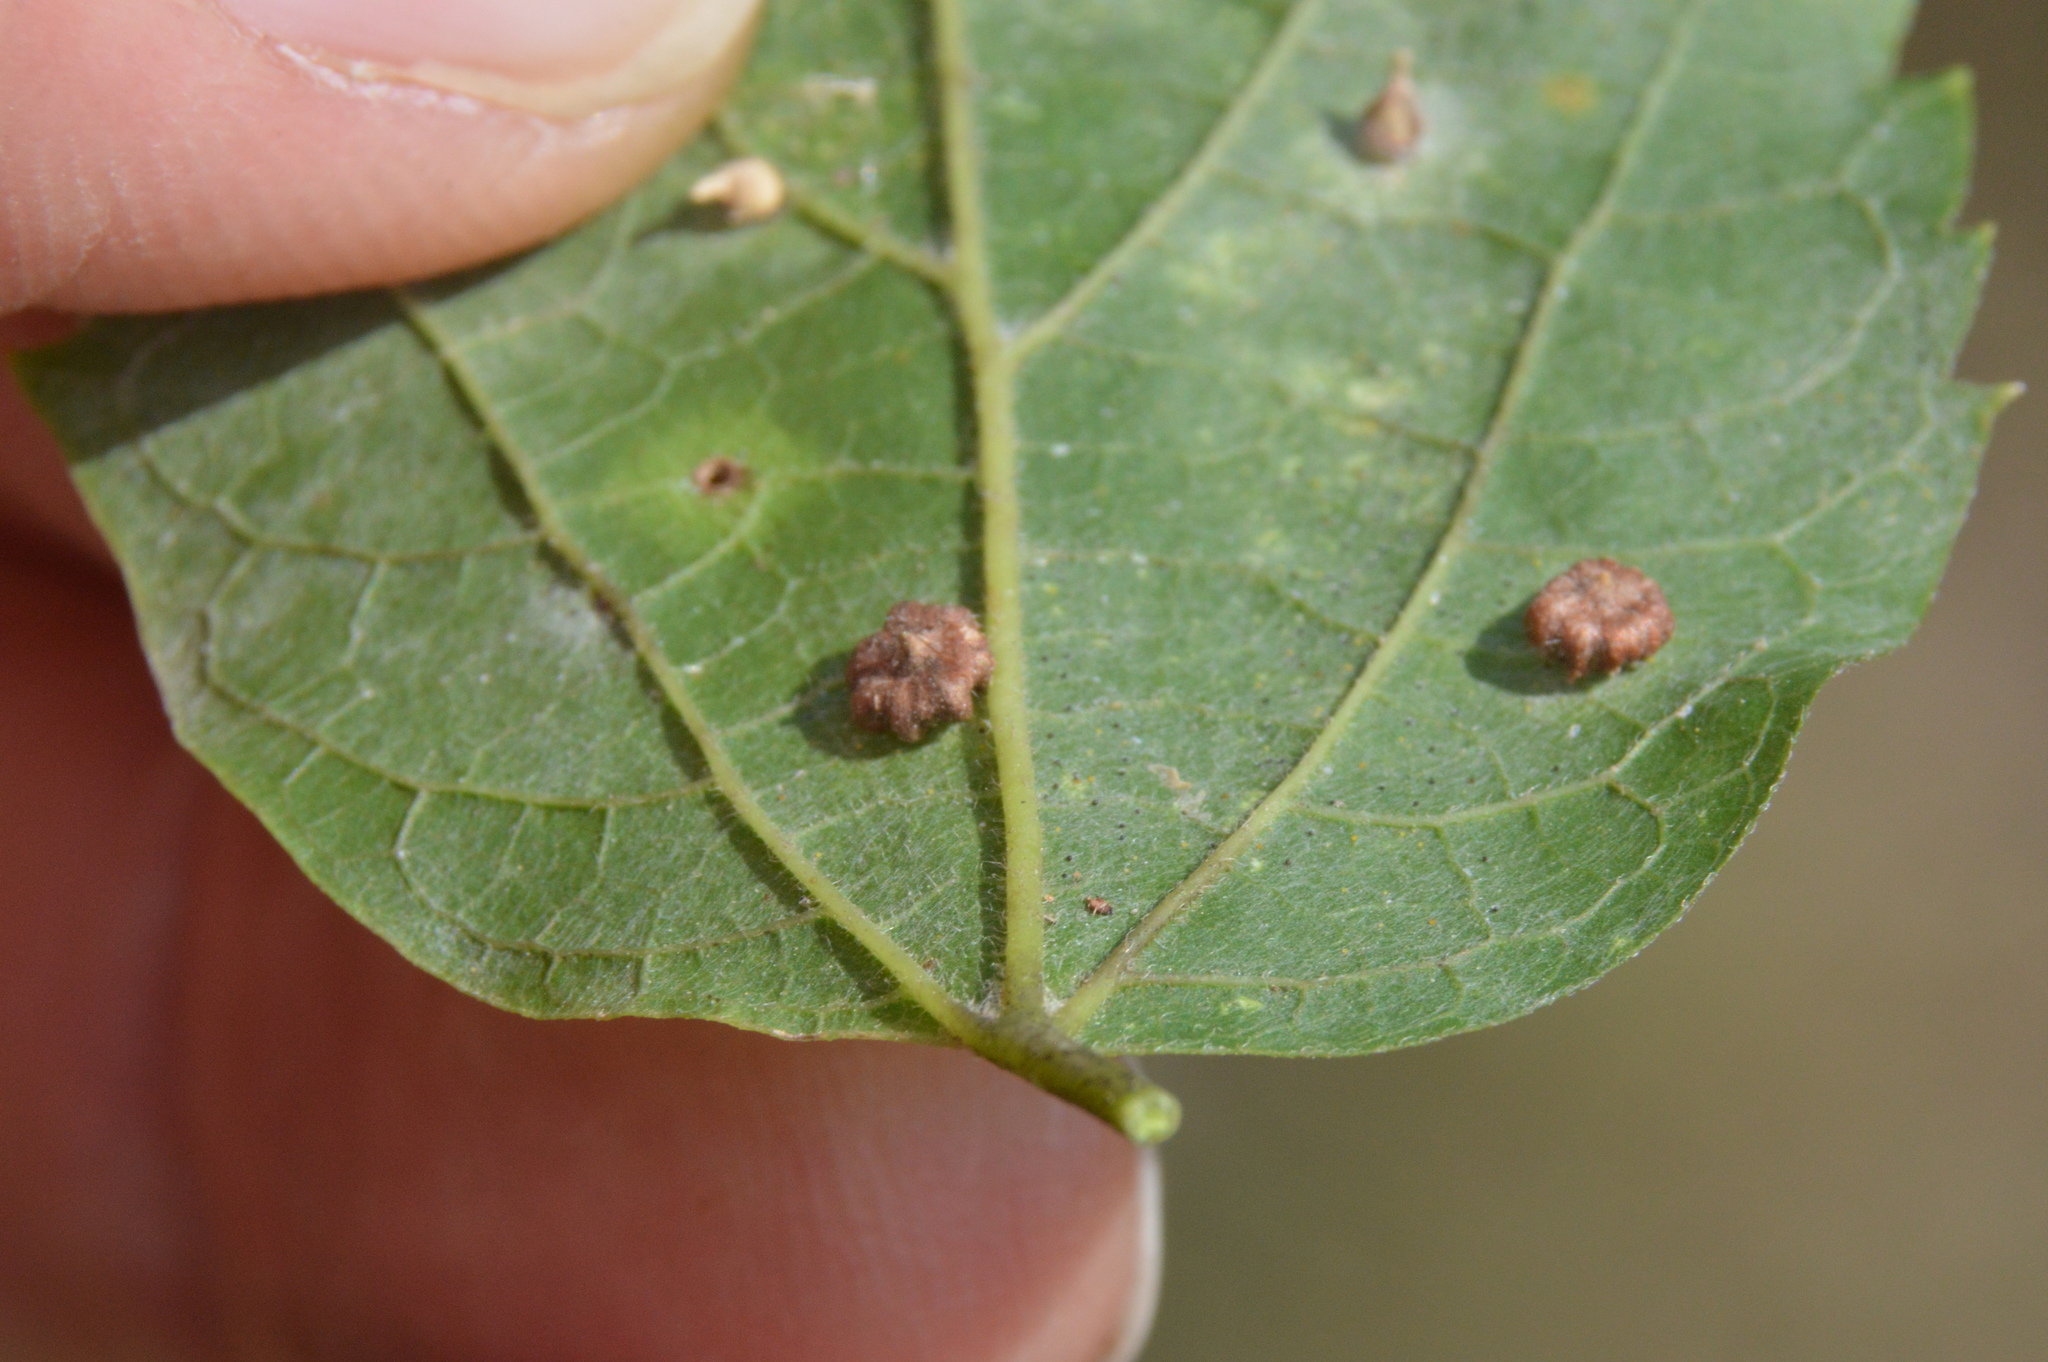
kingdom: Animalia
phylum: Arthropoda
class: Insecta
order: Diptera
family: Cecidomyiidae
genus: Celticecis
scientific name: Celticecis capsularis
